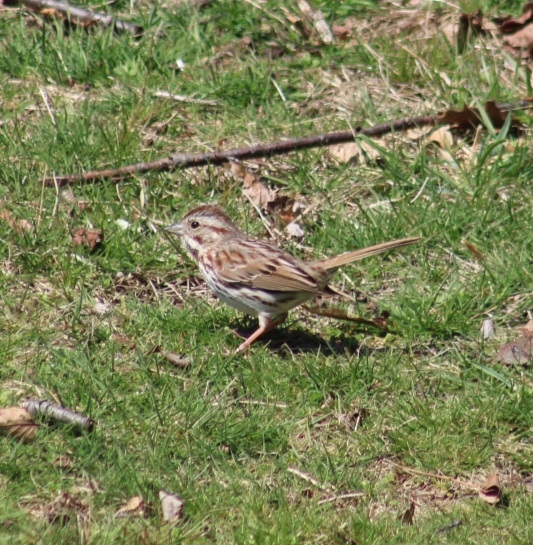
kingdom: Animalia
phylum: Chordata
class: Aves
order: Passeriformes
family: Passerellidae
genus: Melospiza
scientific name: Melospiza melodia
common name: Song sparrow
